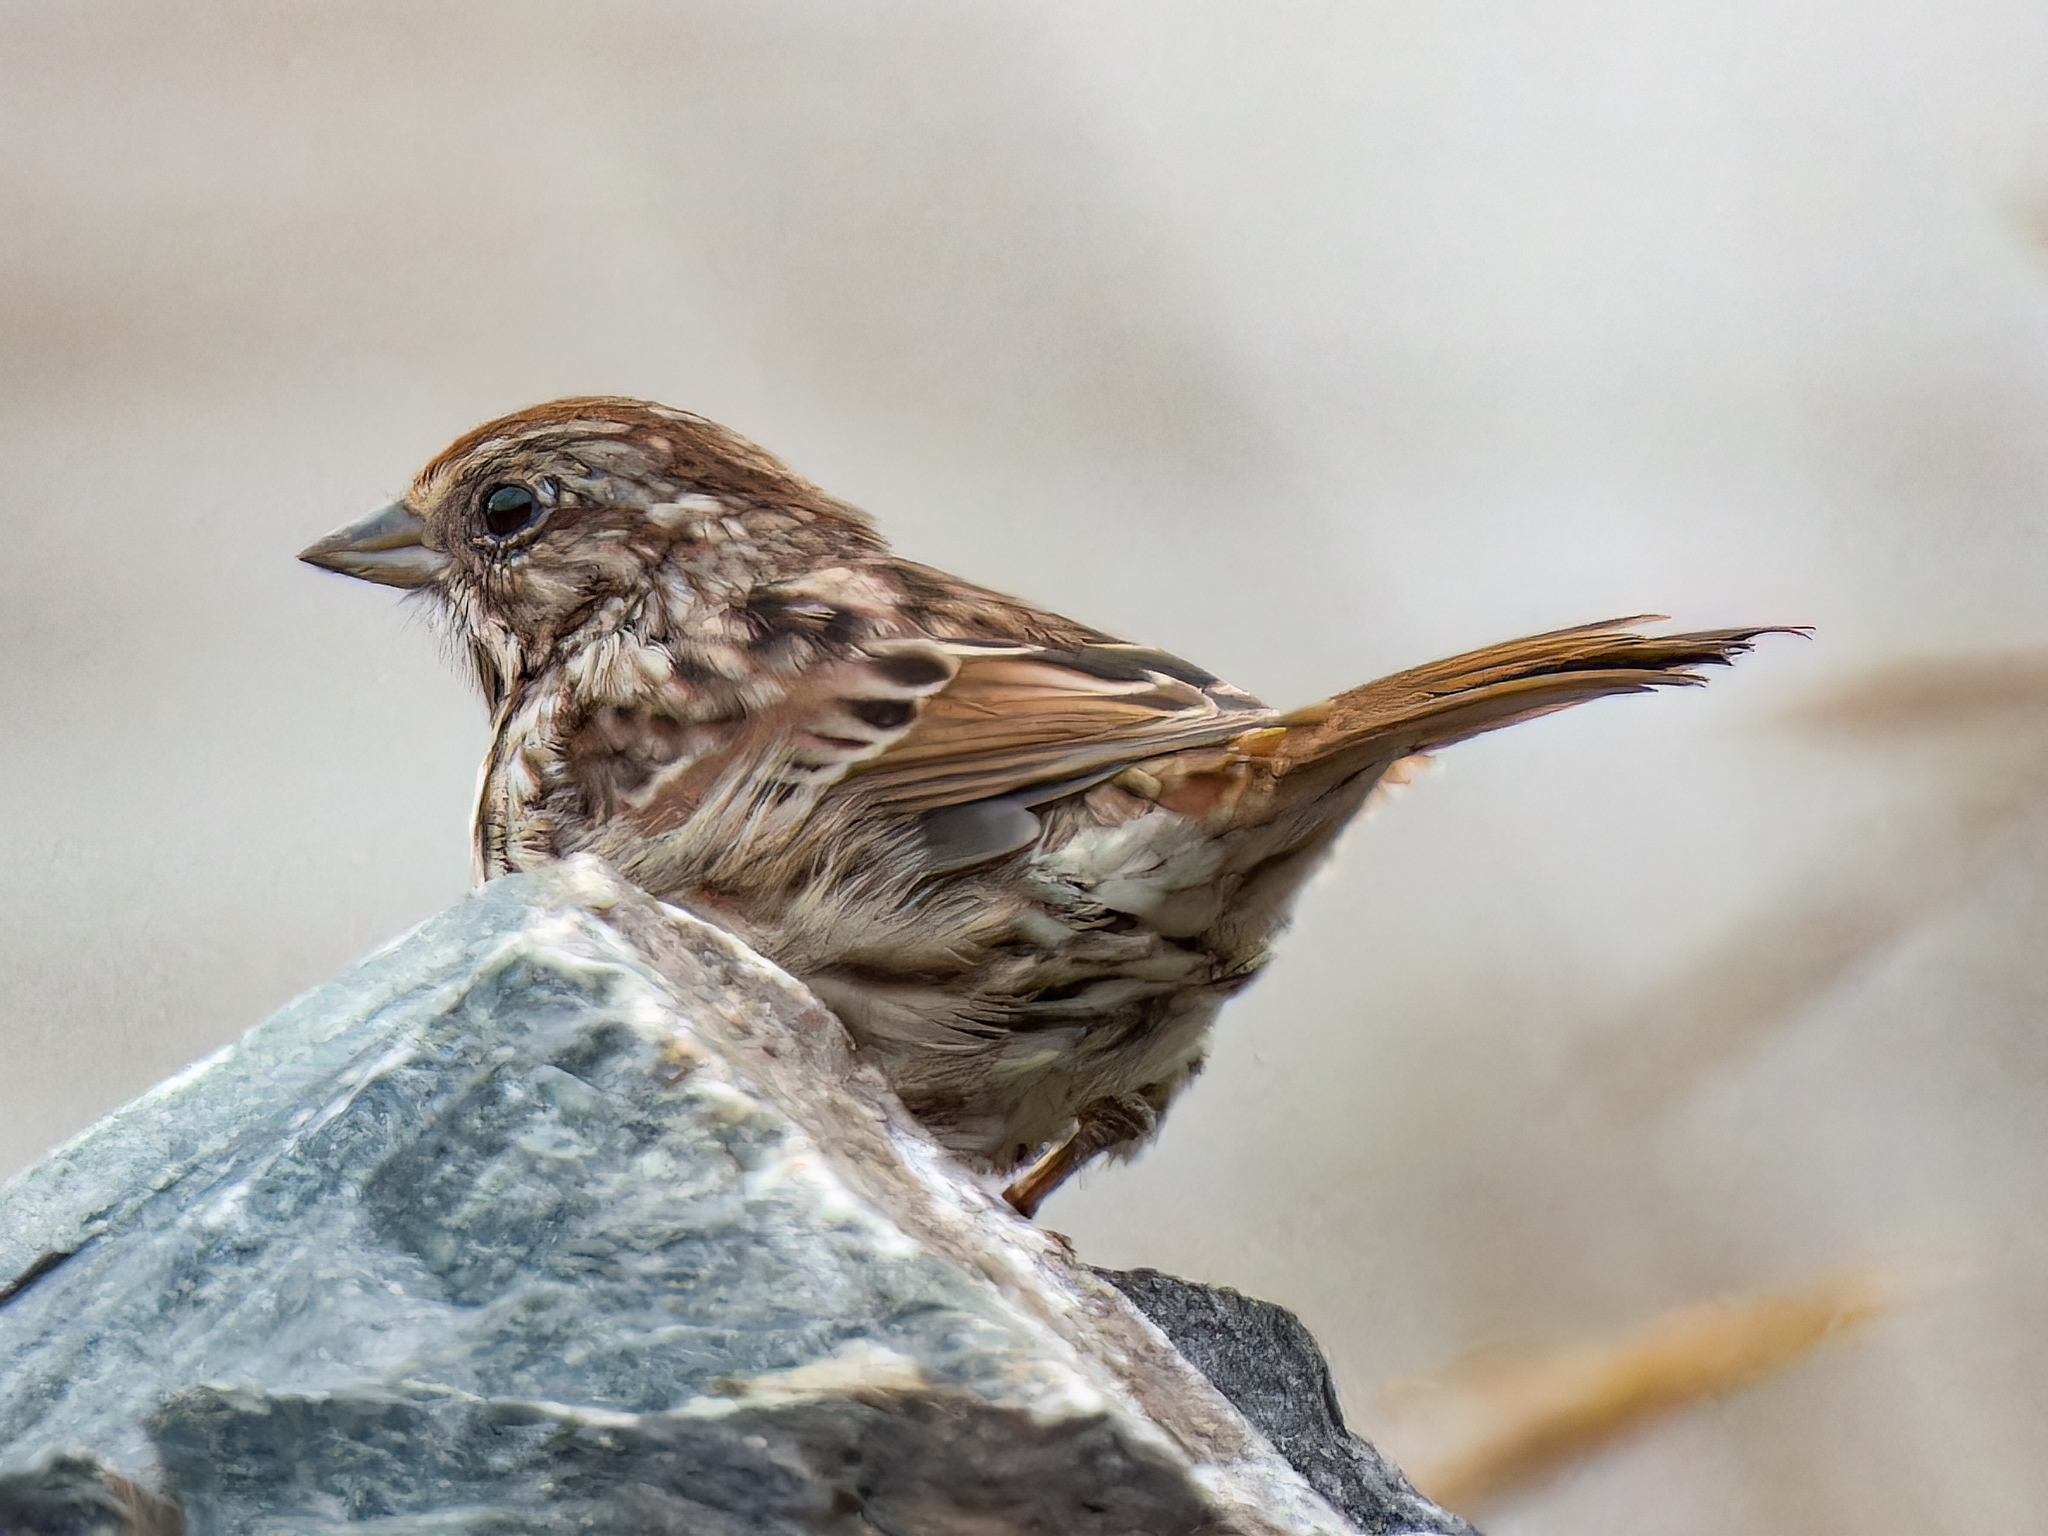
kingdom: Animalia
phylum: Chordata
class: Aves
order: Passeriformes
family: Passerellidae
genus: Melospiza
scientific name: Melospiza melodia
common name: Song sparrow
